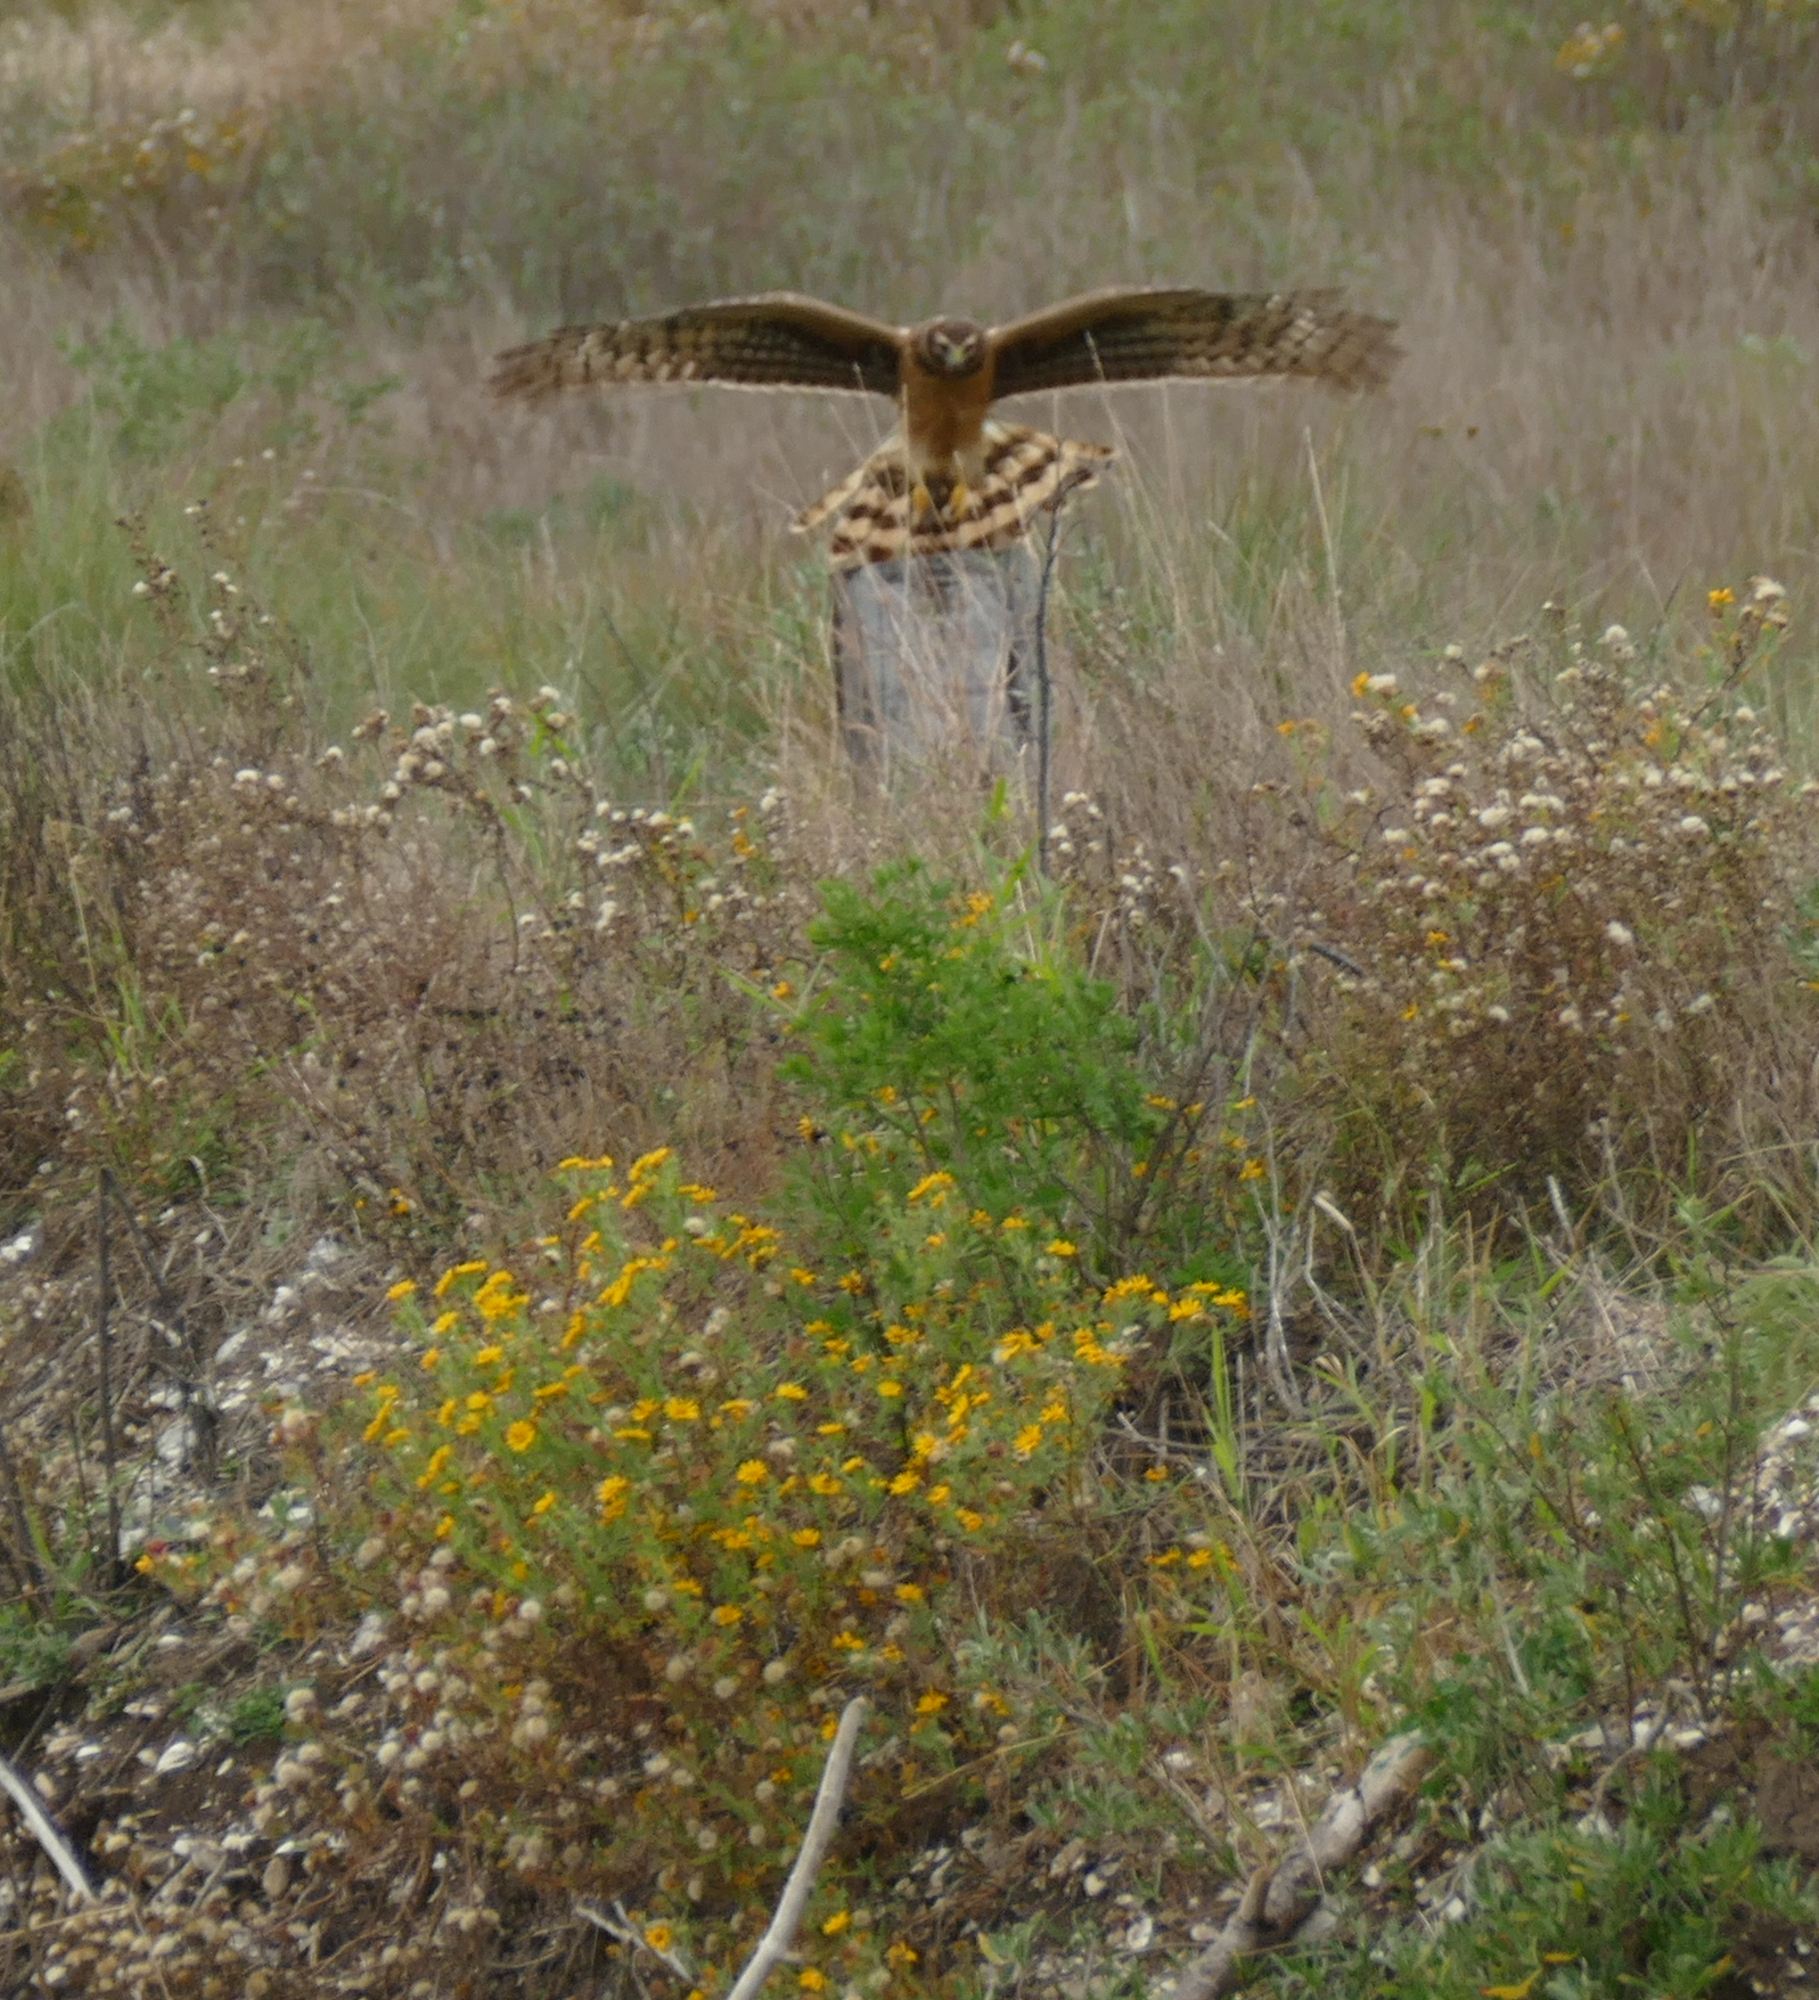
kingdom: Animalia
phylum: Chordata
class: Aves
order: Accipitriformes
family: Accipitridae
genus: Circus
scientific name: Circus cyaneus
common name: Hen harrier
